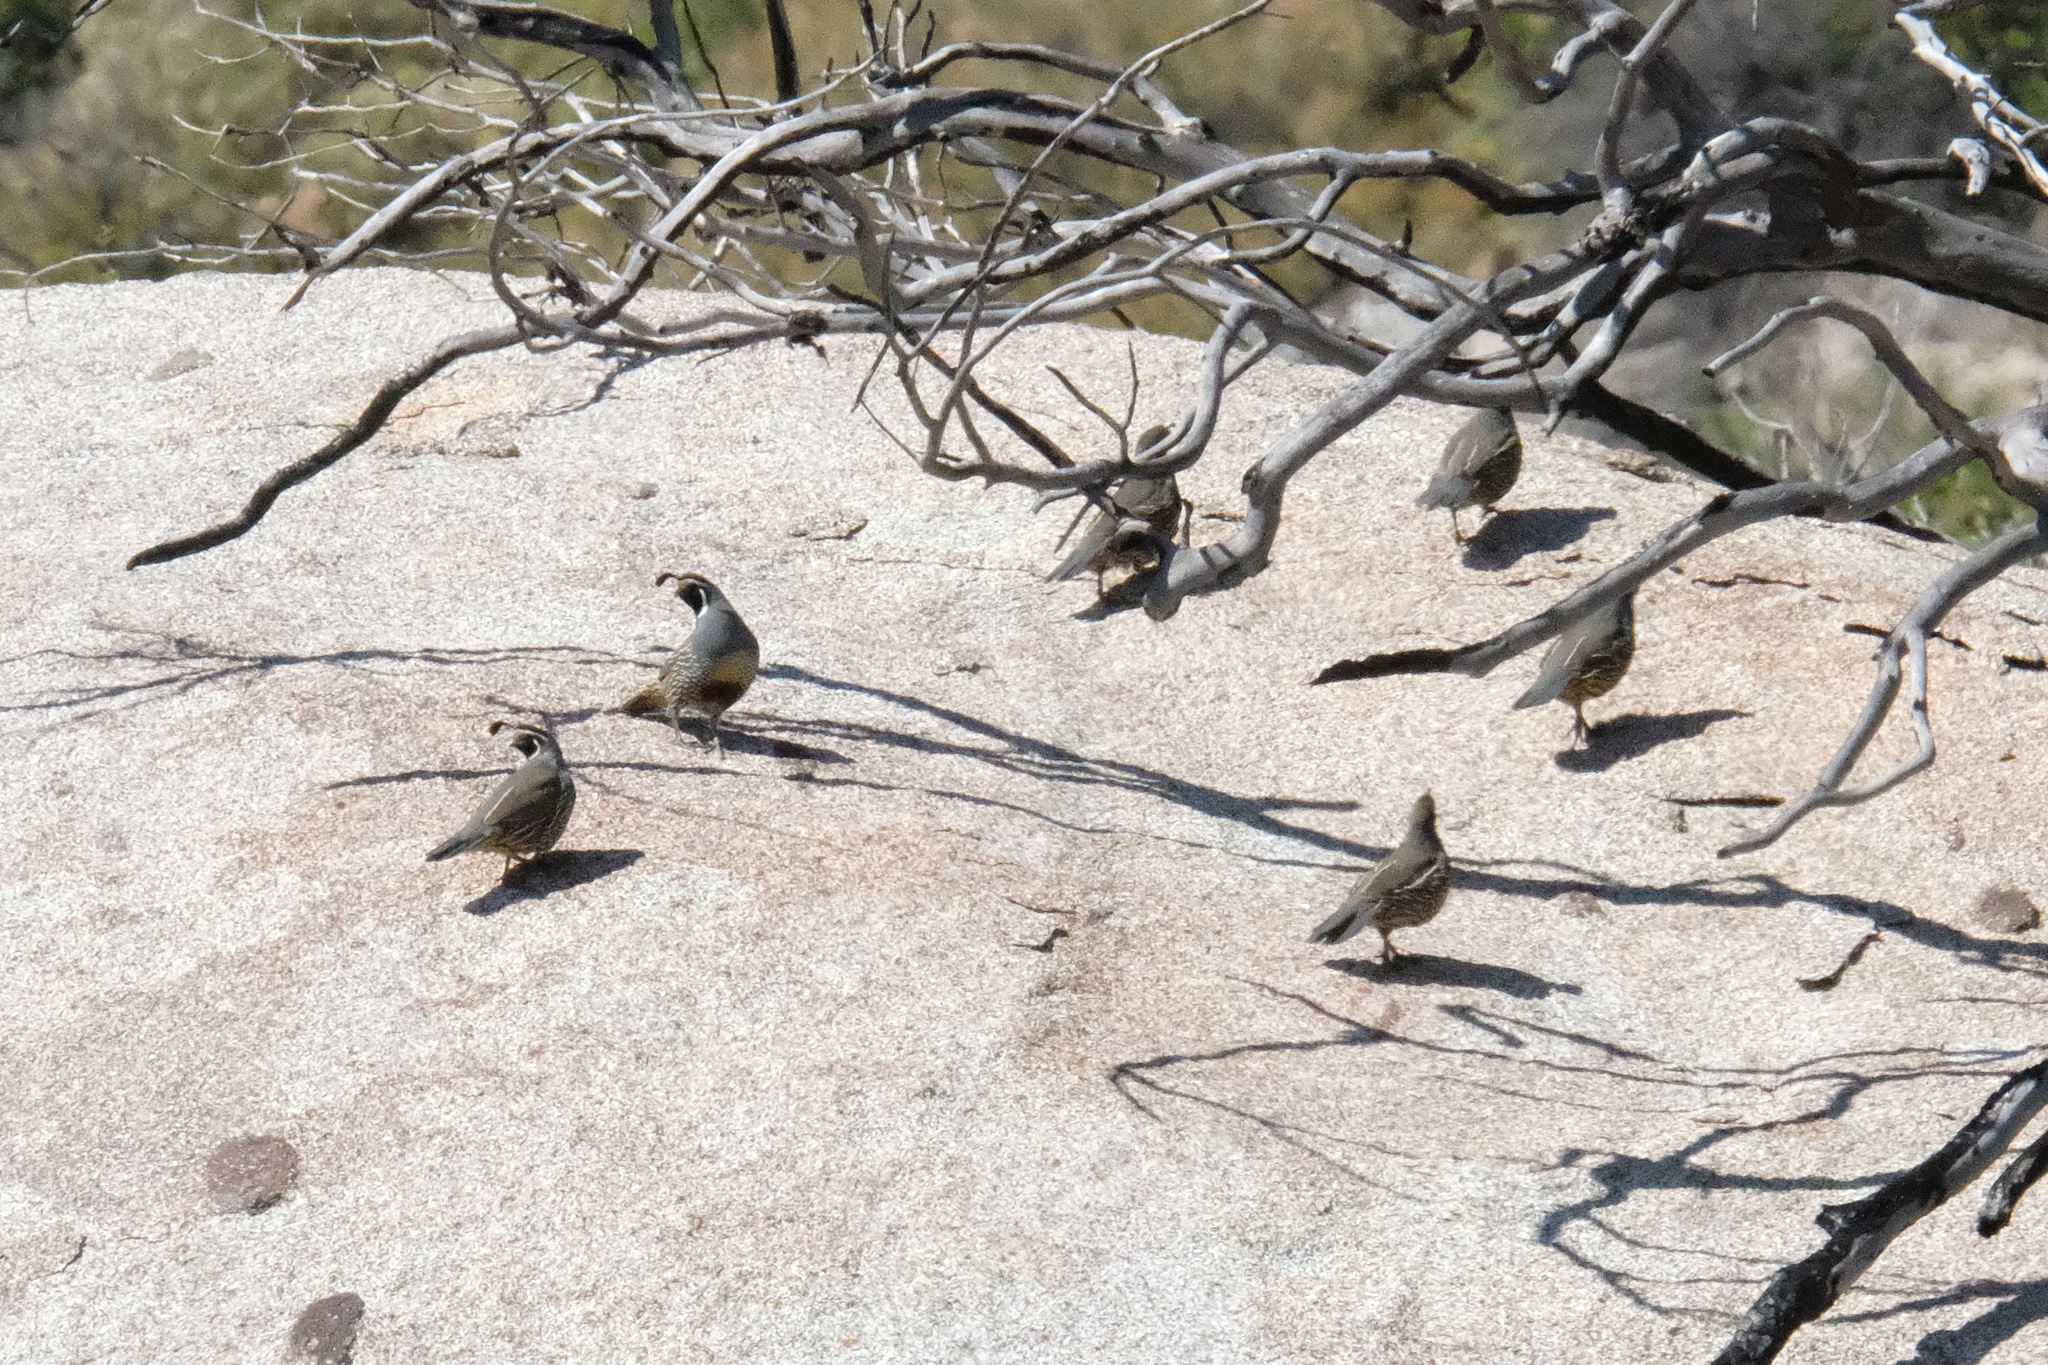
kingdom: Animalia
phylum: Chordata
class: Aves
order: Galliformes
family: Odontophoridae
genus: Callipepla
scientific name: Callipepla californica
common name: California quail
